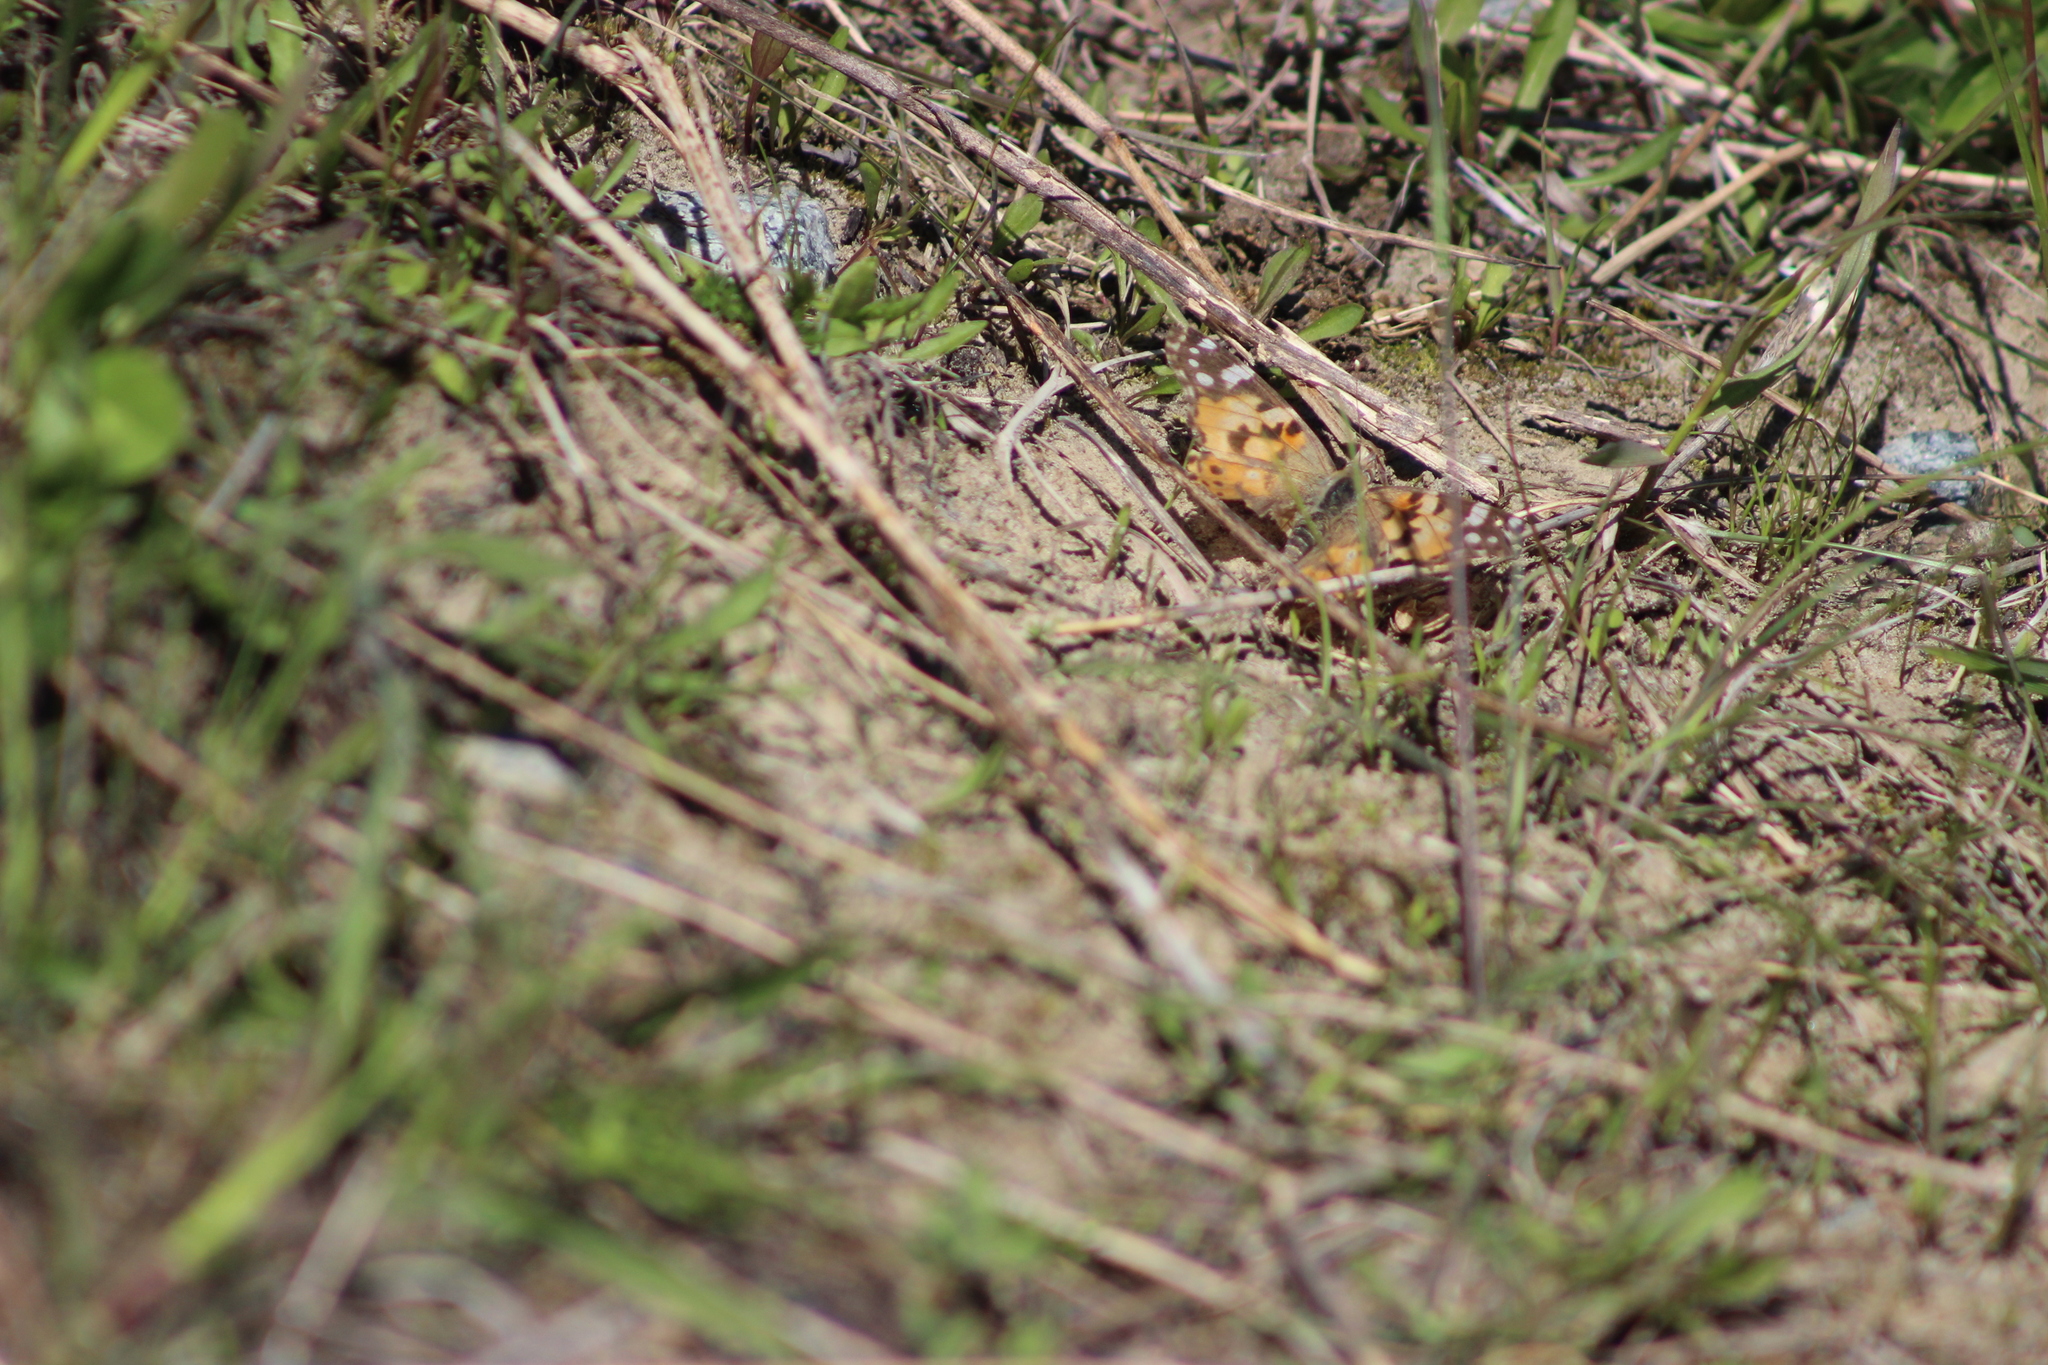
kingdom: Animalia
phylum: Arthropoda
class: Insecta
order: Lepidoptera
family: Nymphalidae
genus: Vanessa
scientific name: Vanessa cardui
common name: Painted lady
